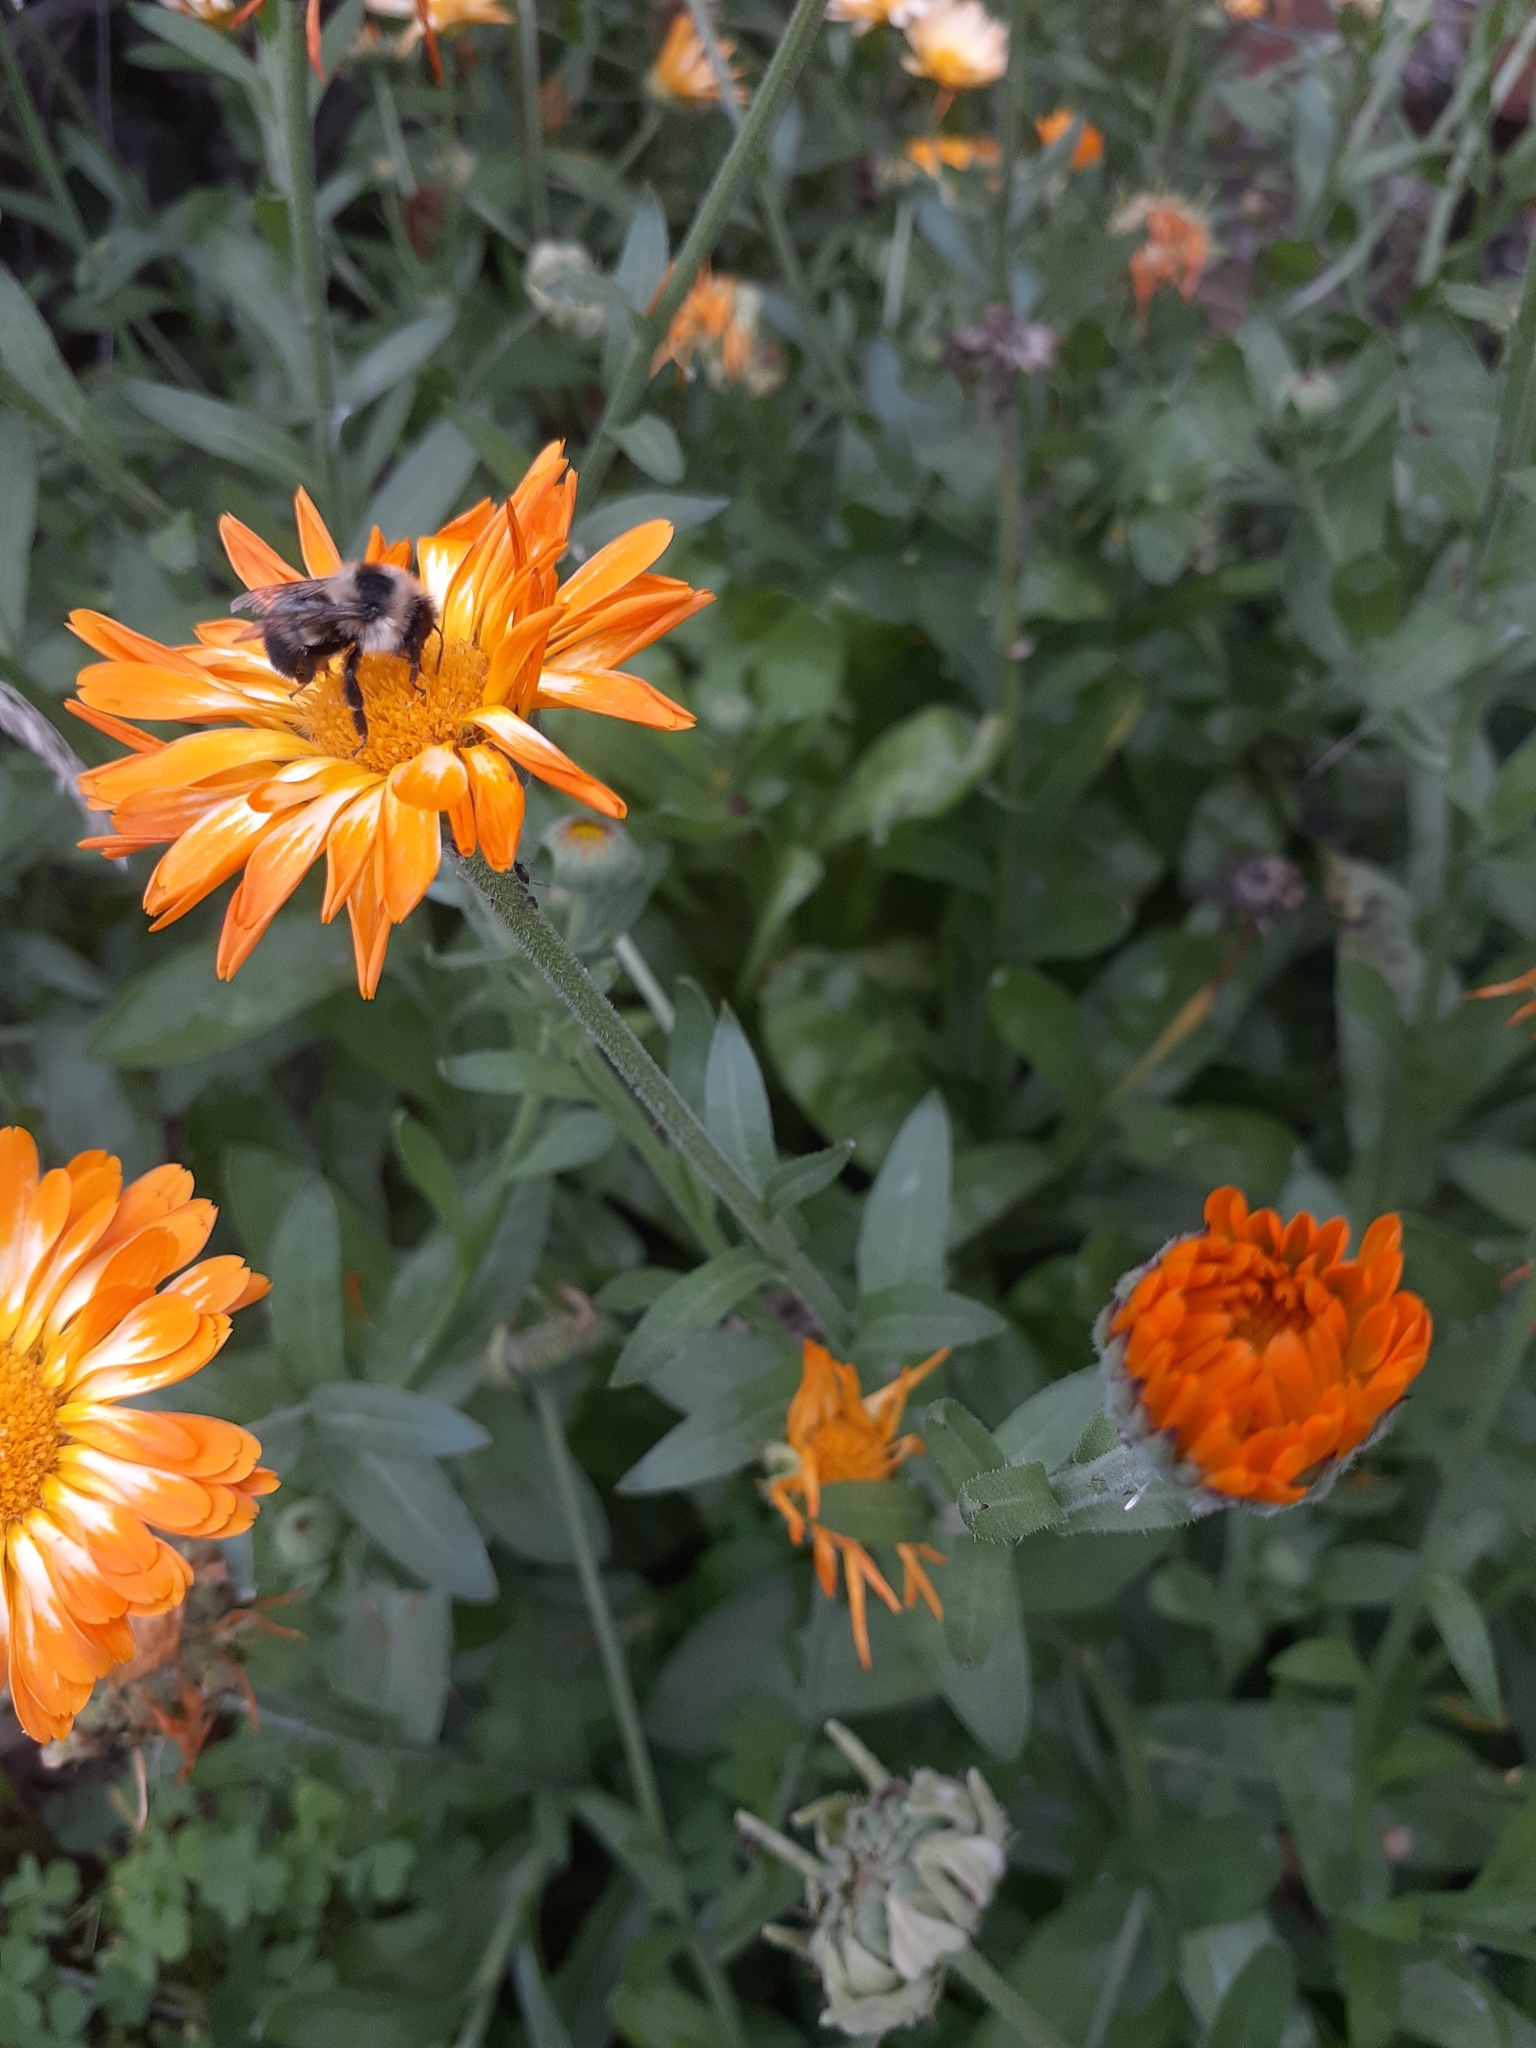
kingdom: Animalia
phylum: Arthropoda
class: Insecta
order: Hymenoptera
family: Apidae
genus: Bombus
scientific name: Bombus rufocinctus
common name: Red-belted bumble bee
